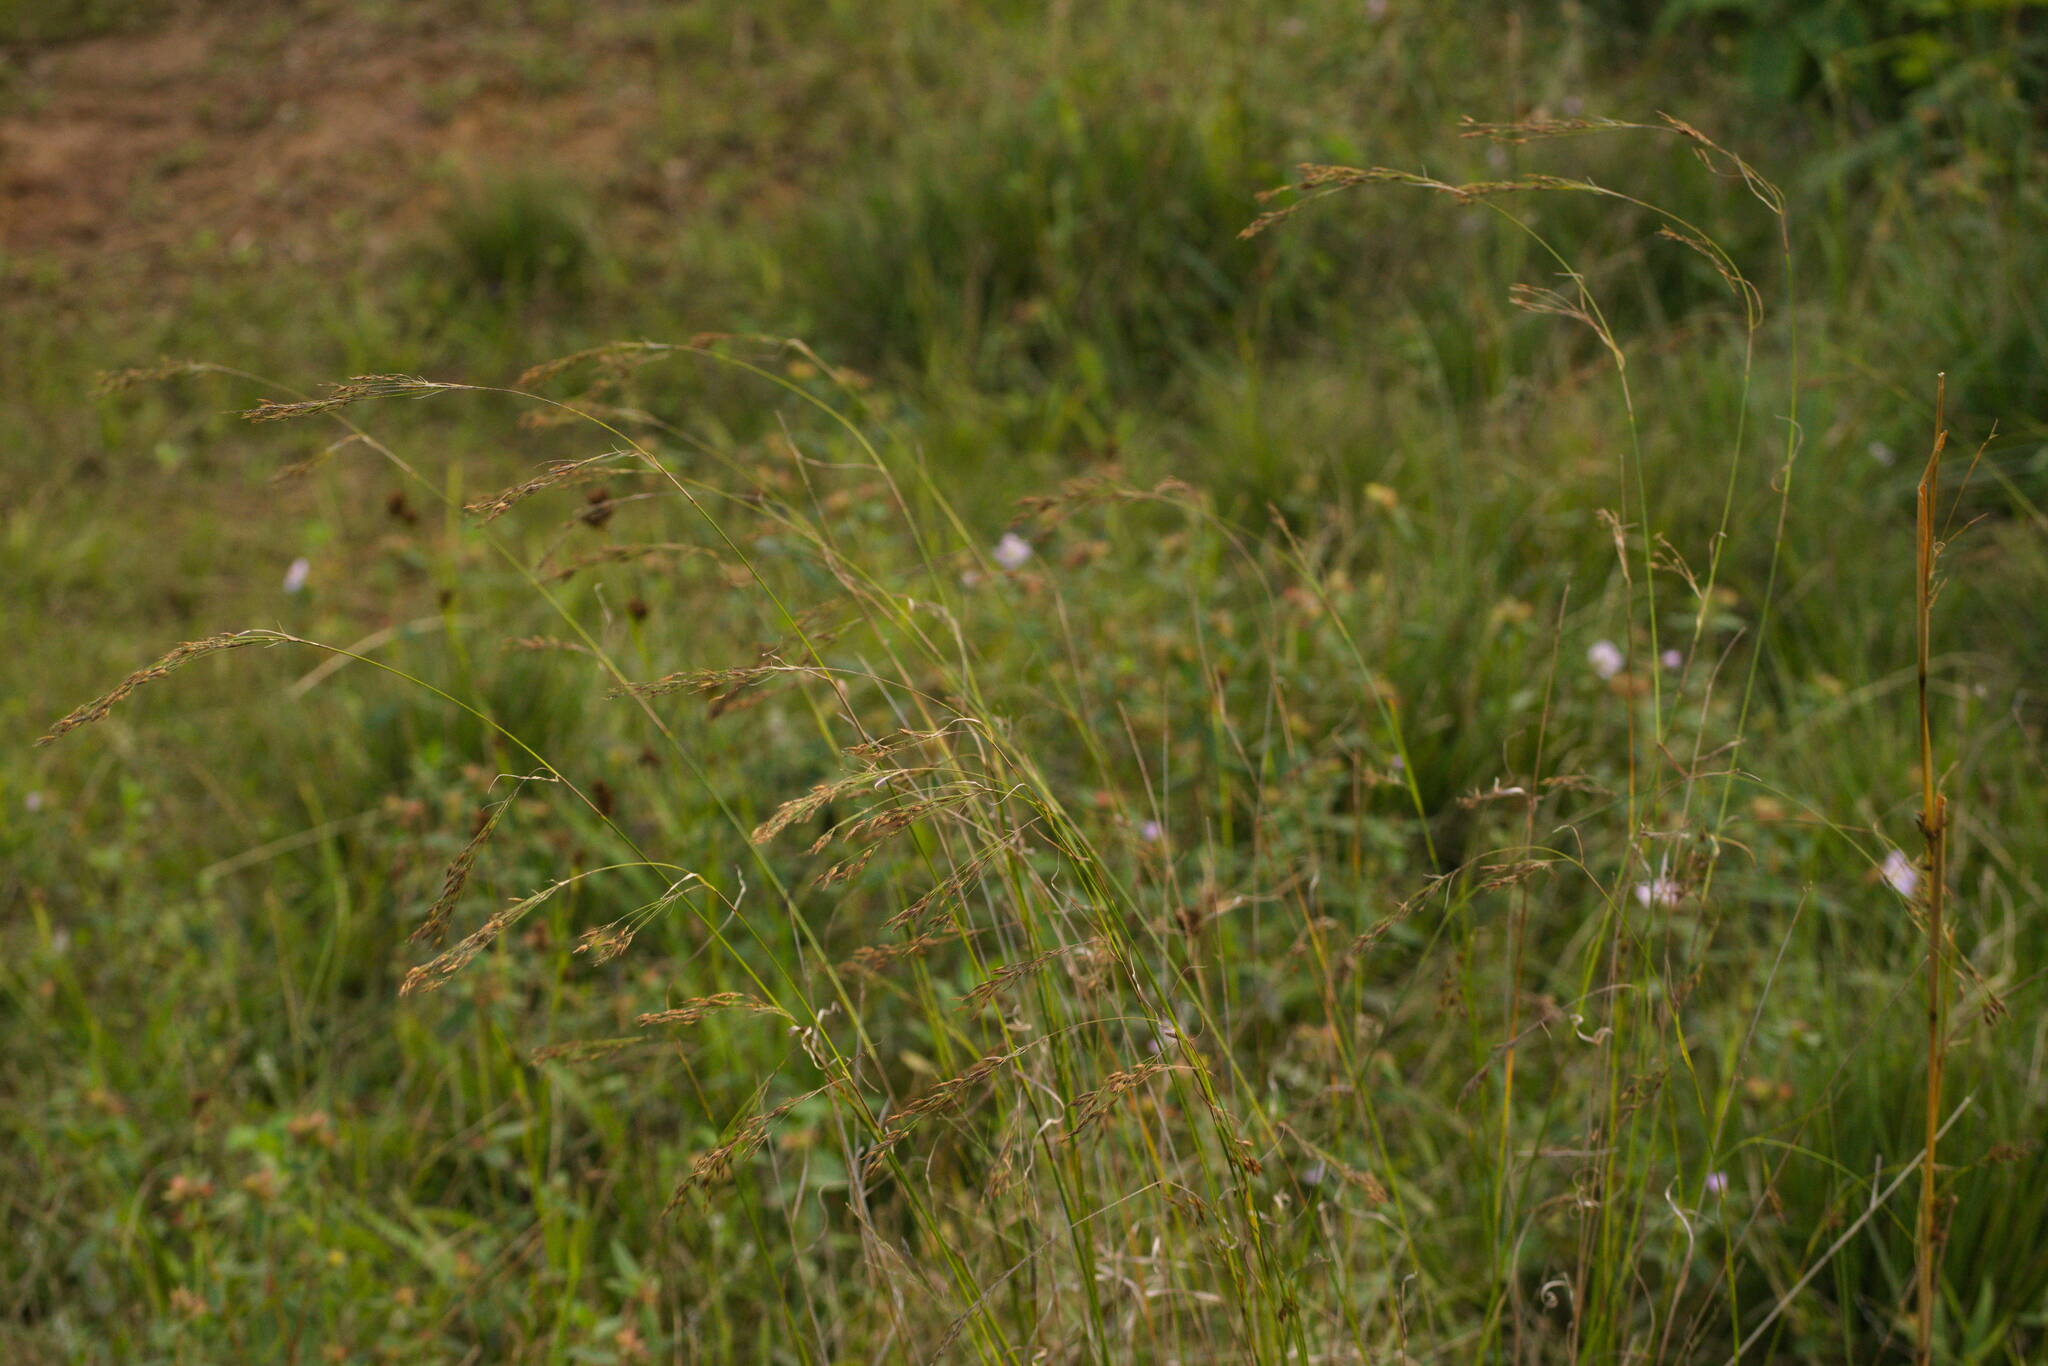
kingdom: Plantae
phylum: Tracheophyta
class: Liliopsida
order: Poales
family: Cyperaceae
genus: Rhynchospora
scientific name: Rhynchospora caduca
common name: Anglestem beaksedge
